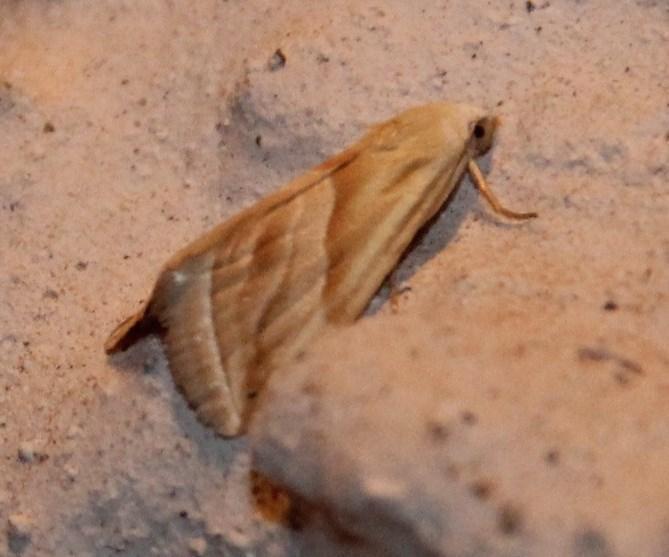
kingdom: Animalia
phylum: Arthropoda
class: Insecta
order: Lepidoptera
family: Noctuidae
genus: Eublemma
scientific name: Eublemma flavida
